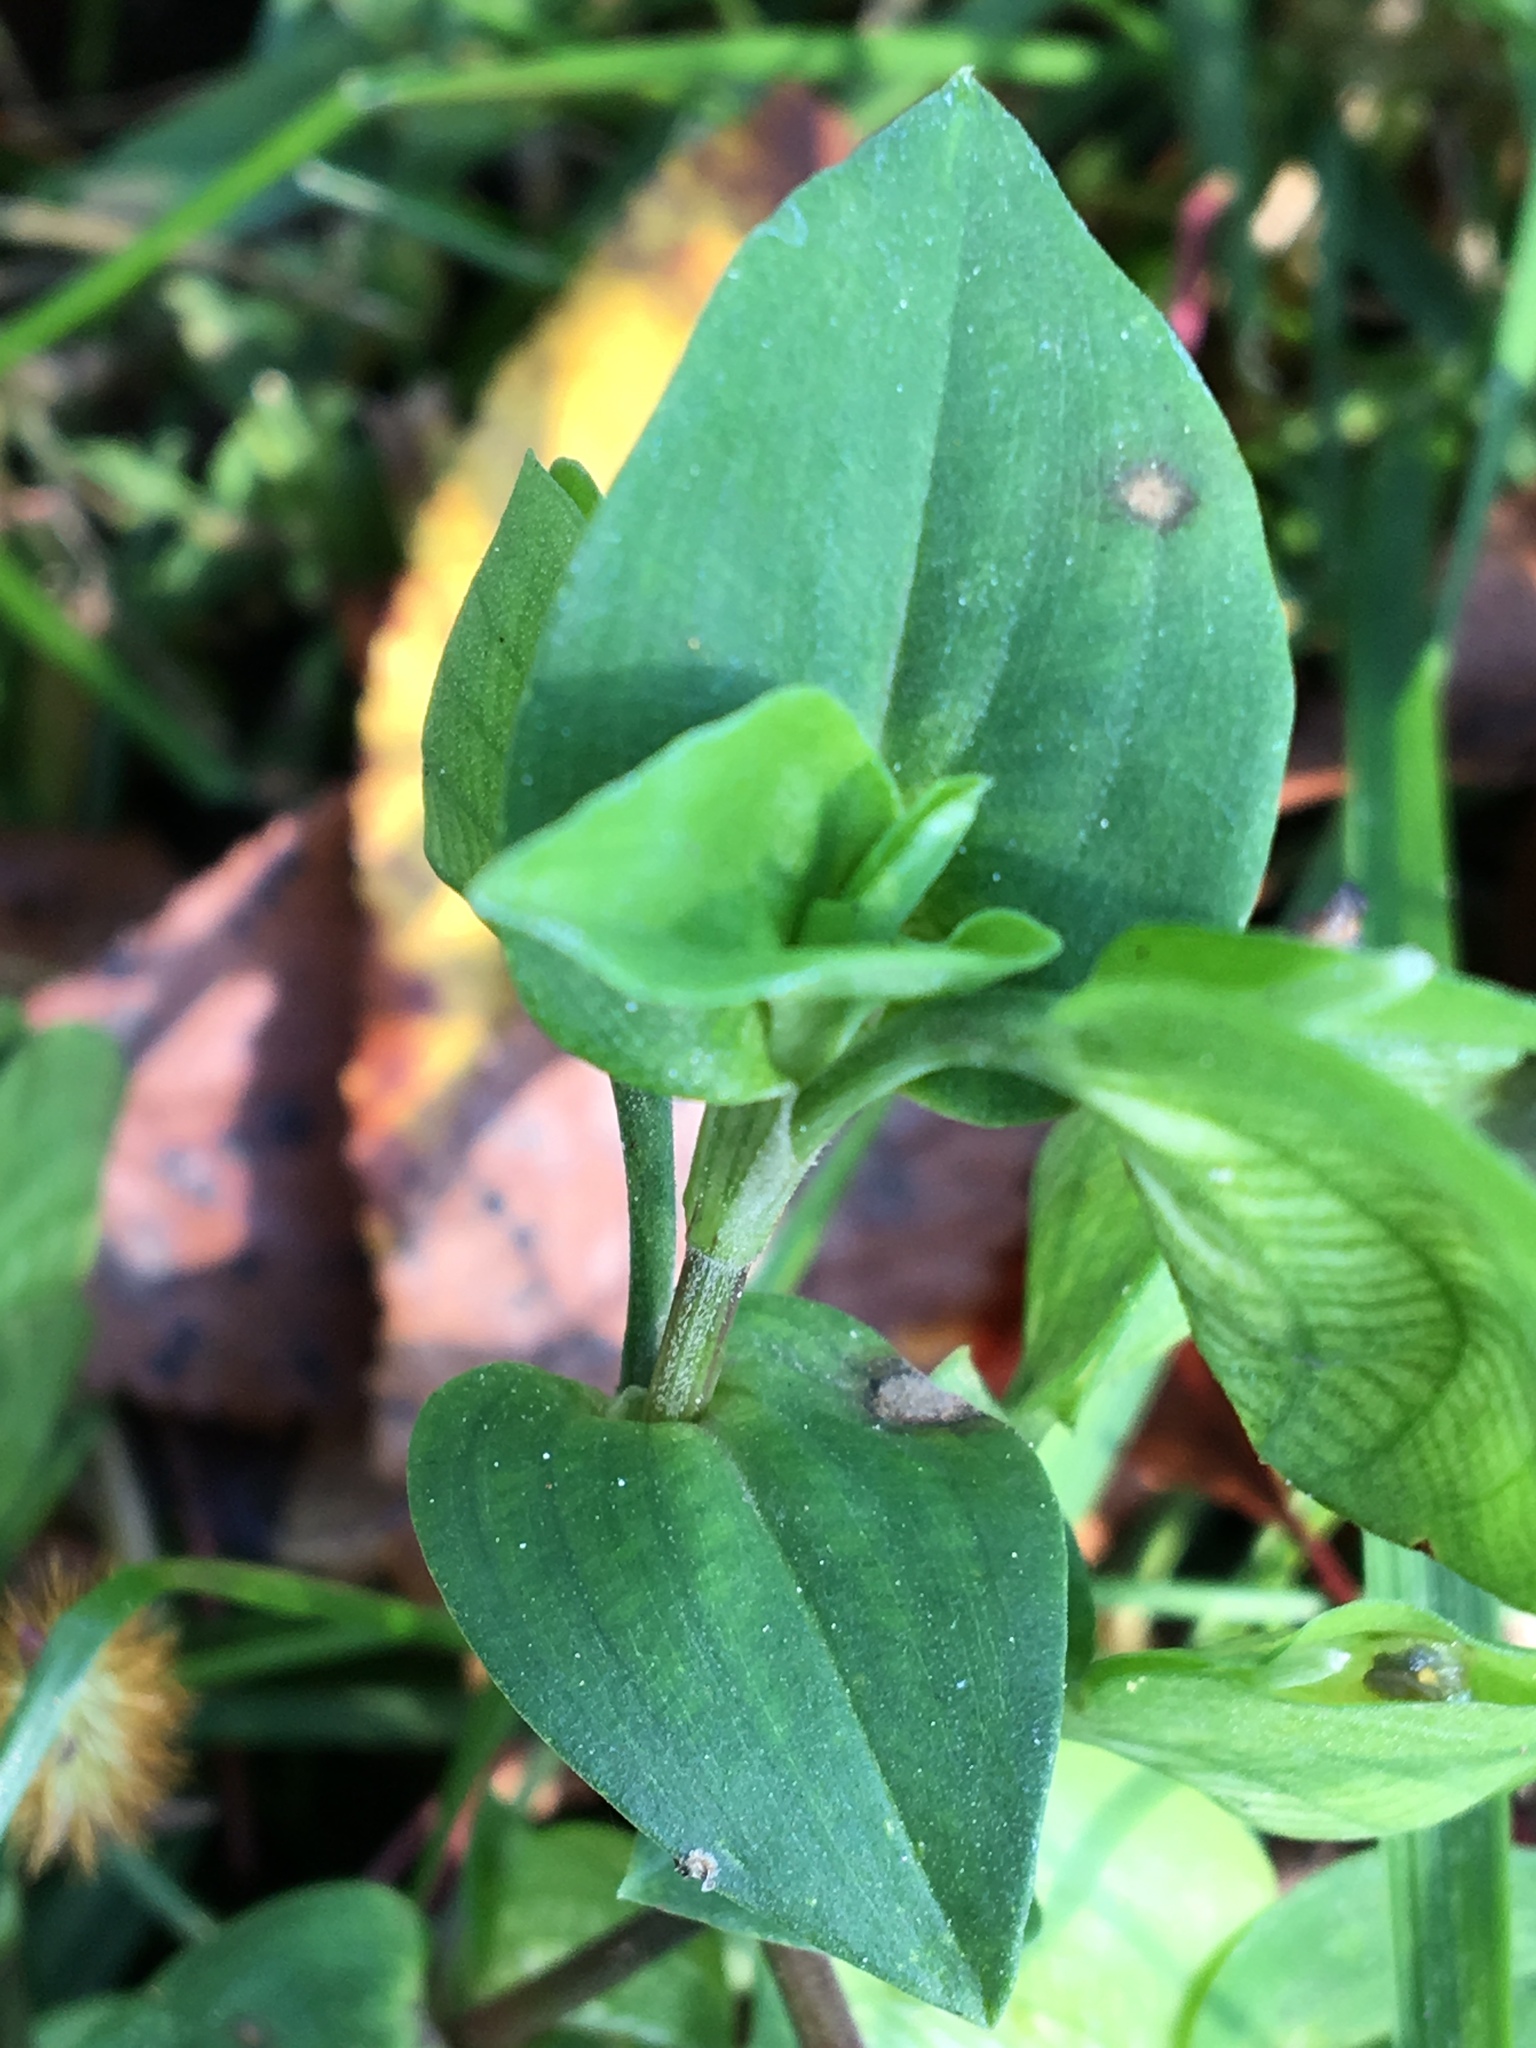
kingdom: Plantae
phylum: Tracheophyta
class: Liliopsida
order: Commelinales
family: Commelinaceae
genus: Commelina
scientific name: Commelina communis
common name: Asiatic dayflower
